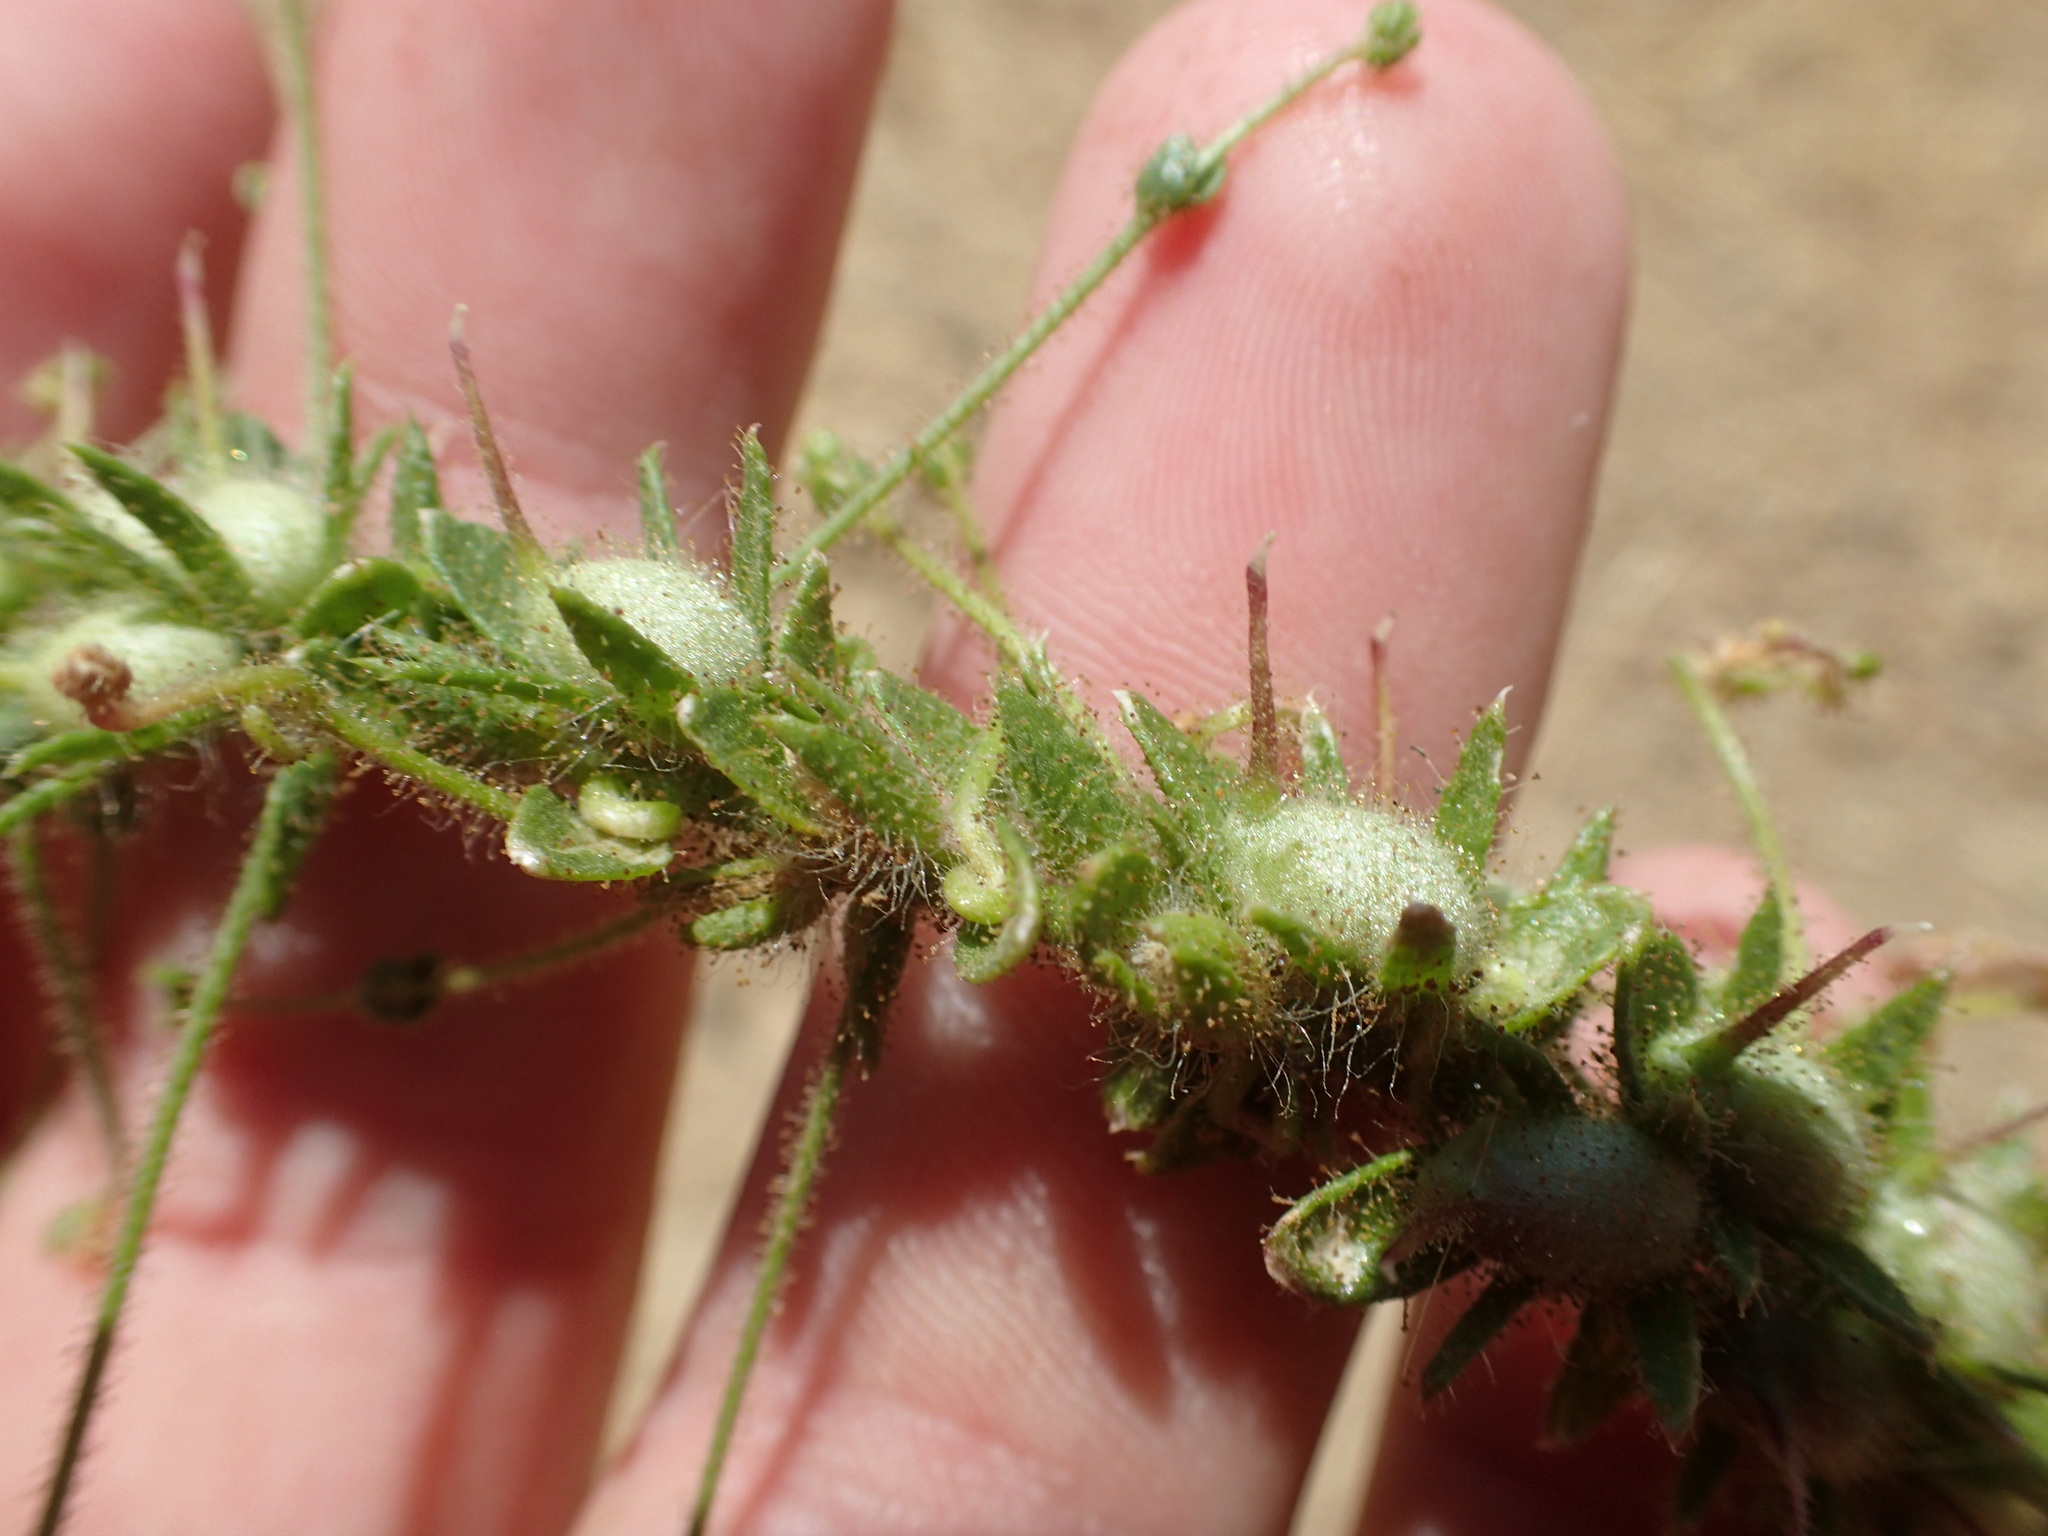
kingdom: Plantae
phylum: Tracheophyta
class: Magnoliopsida
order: Lamiales
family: Plantaginaceae
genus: Sairocarpus
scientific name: Sairocarpus vexillocalyculatus
